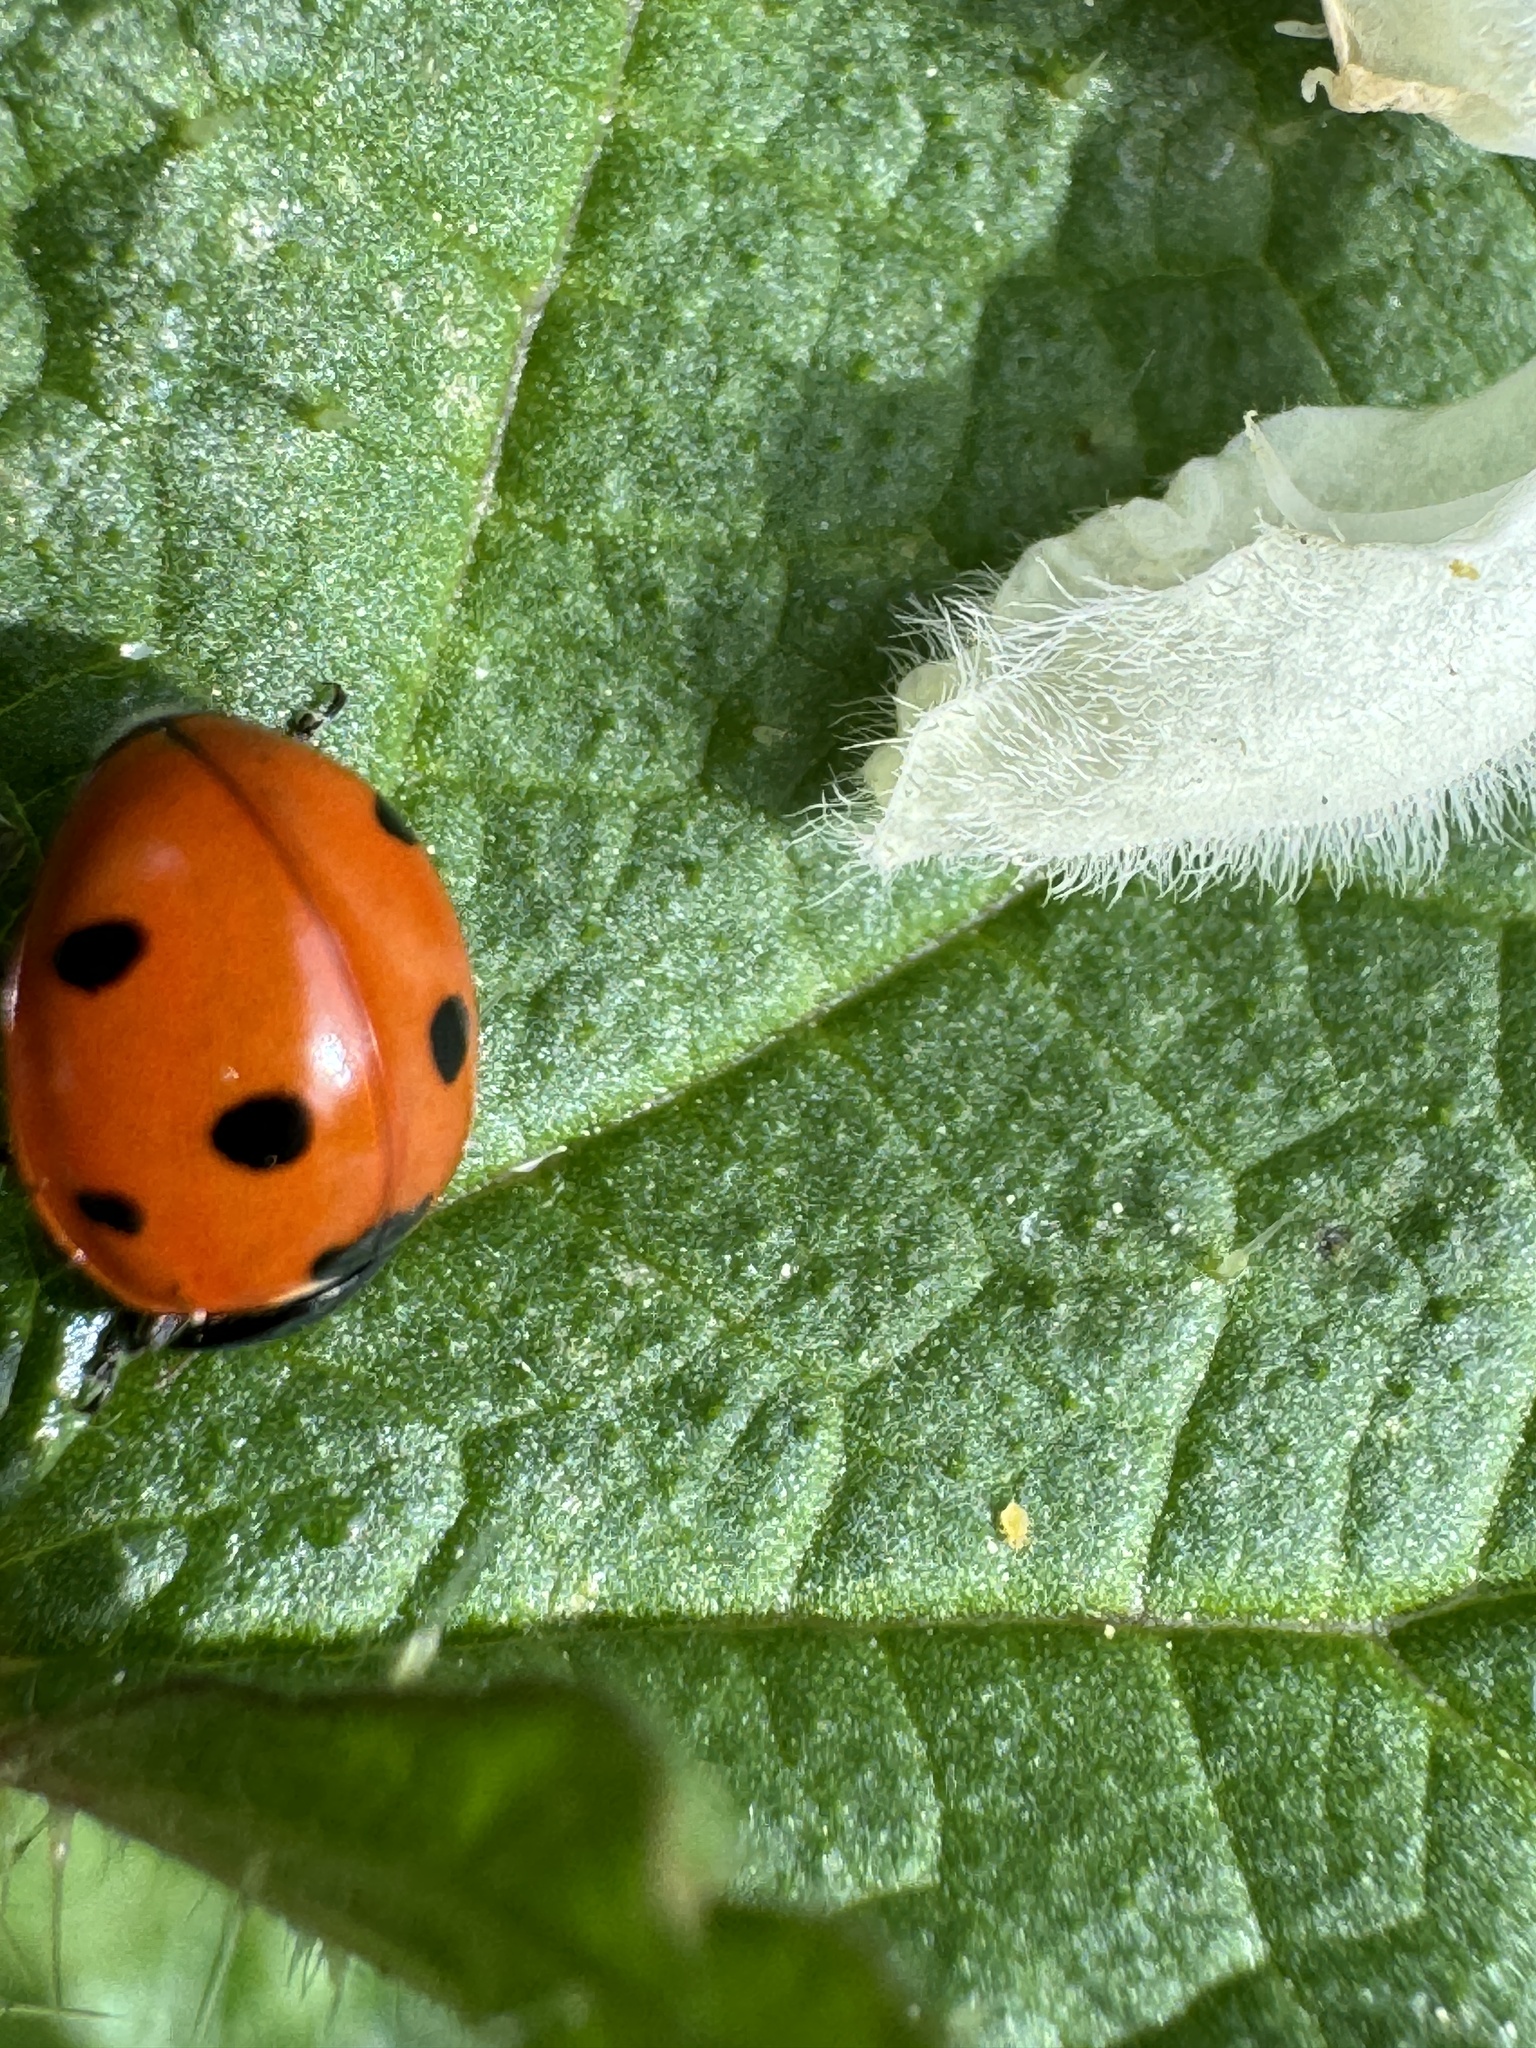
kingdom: Animalia
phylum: Arthropoda
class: Insecta
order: Coleoptera
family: Coccinellidae
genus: Coccinella
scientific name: Coccinella septempunctata
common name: Sevenspotted lady beetle
